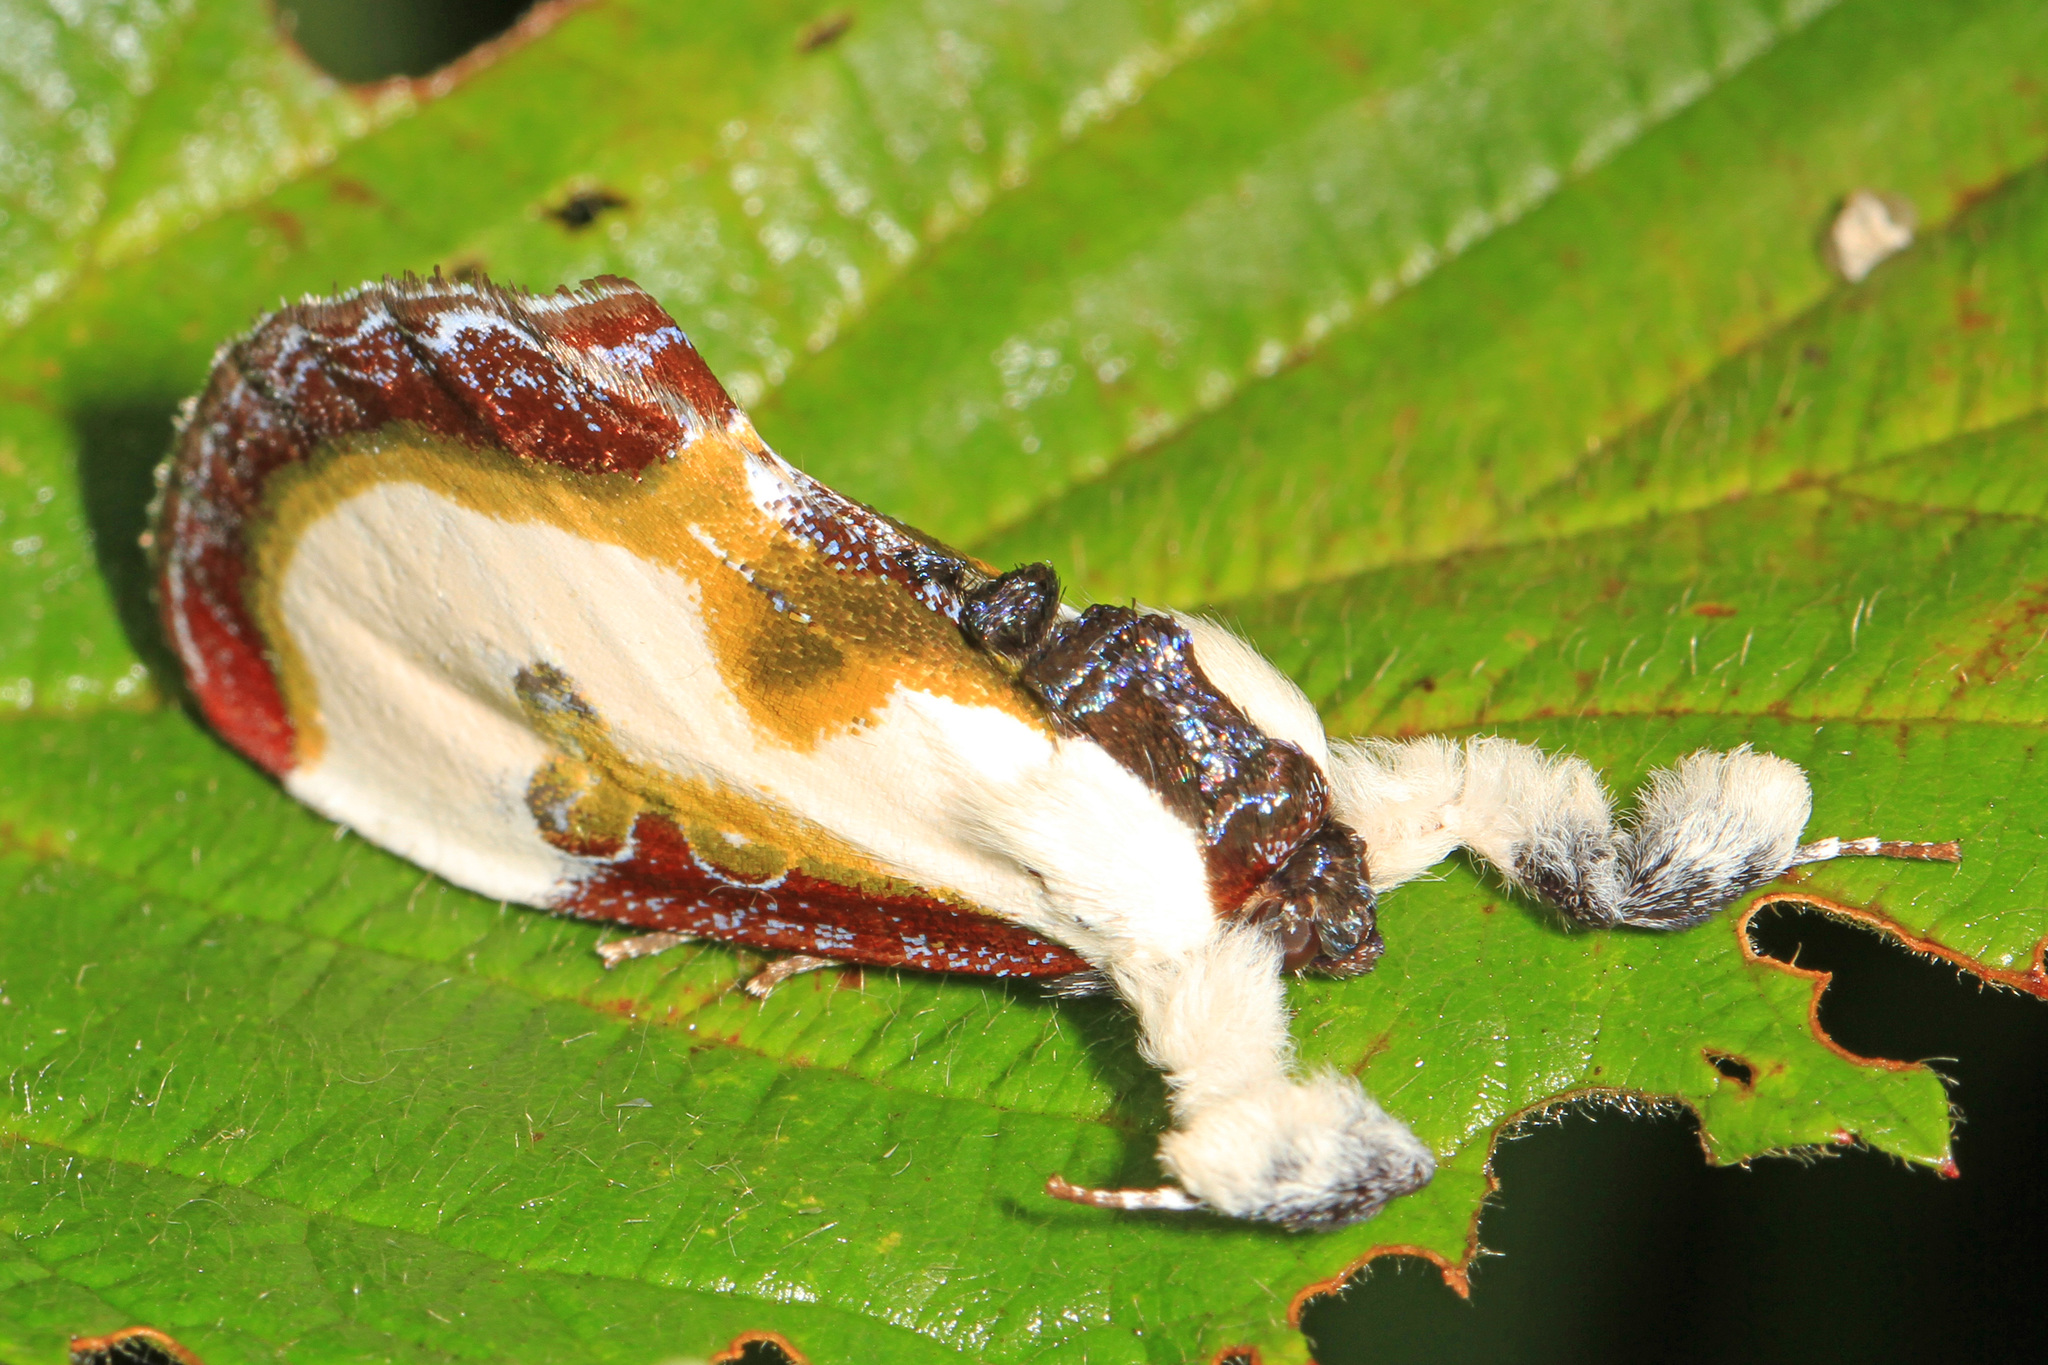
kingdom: Animalia
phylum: Arthropoda
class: Insecta
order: Lepidoptera
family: Noctuidae
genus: Eudryas
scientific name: Eudryas grata
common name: Beautiful wood-nymph
